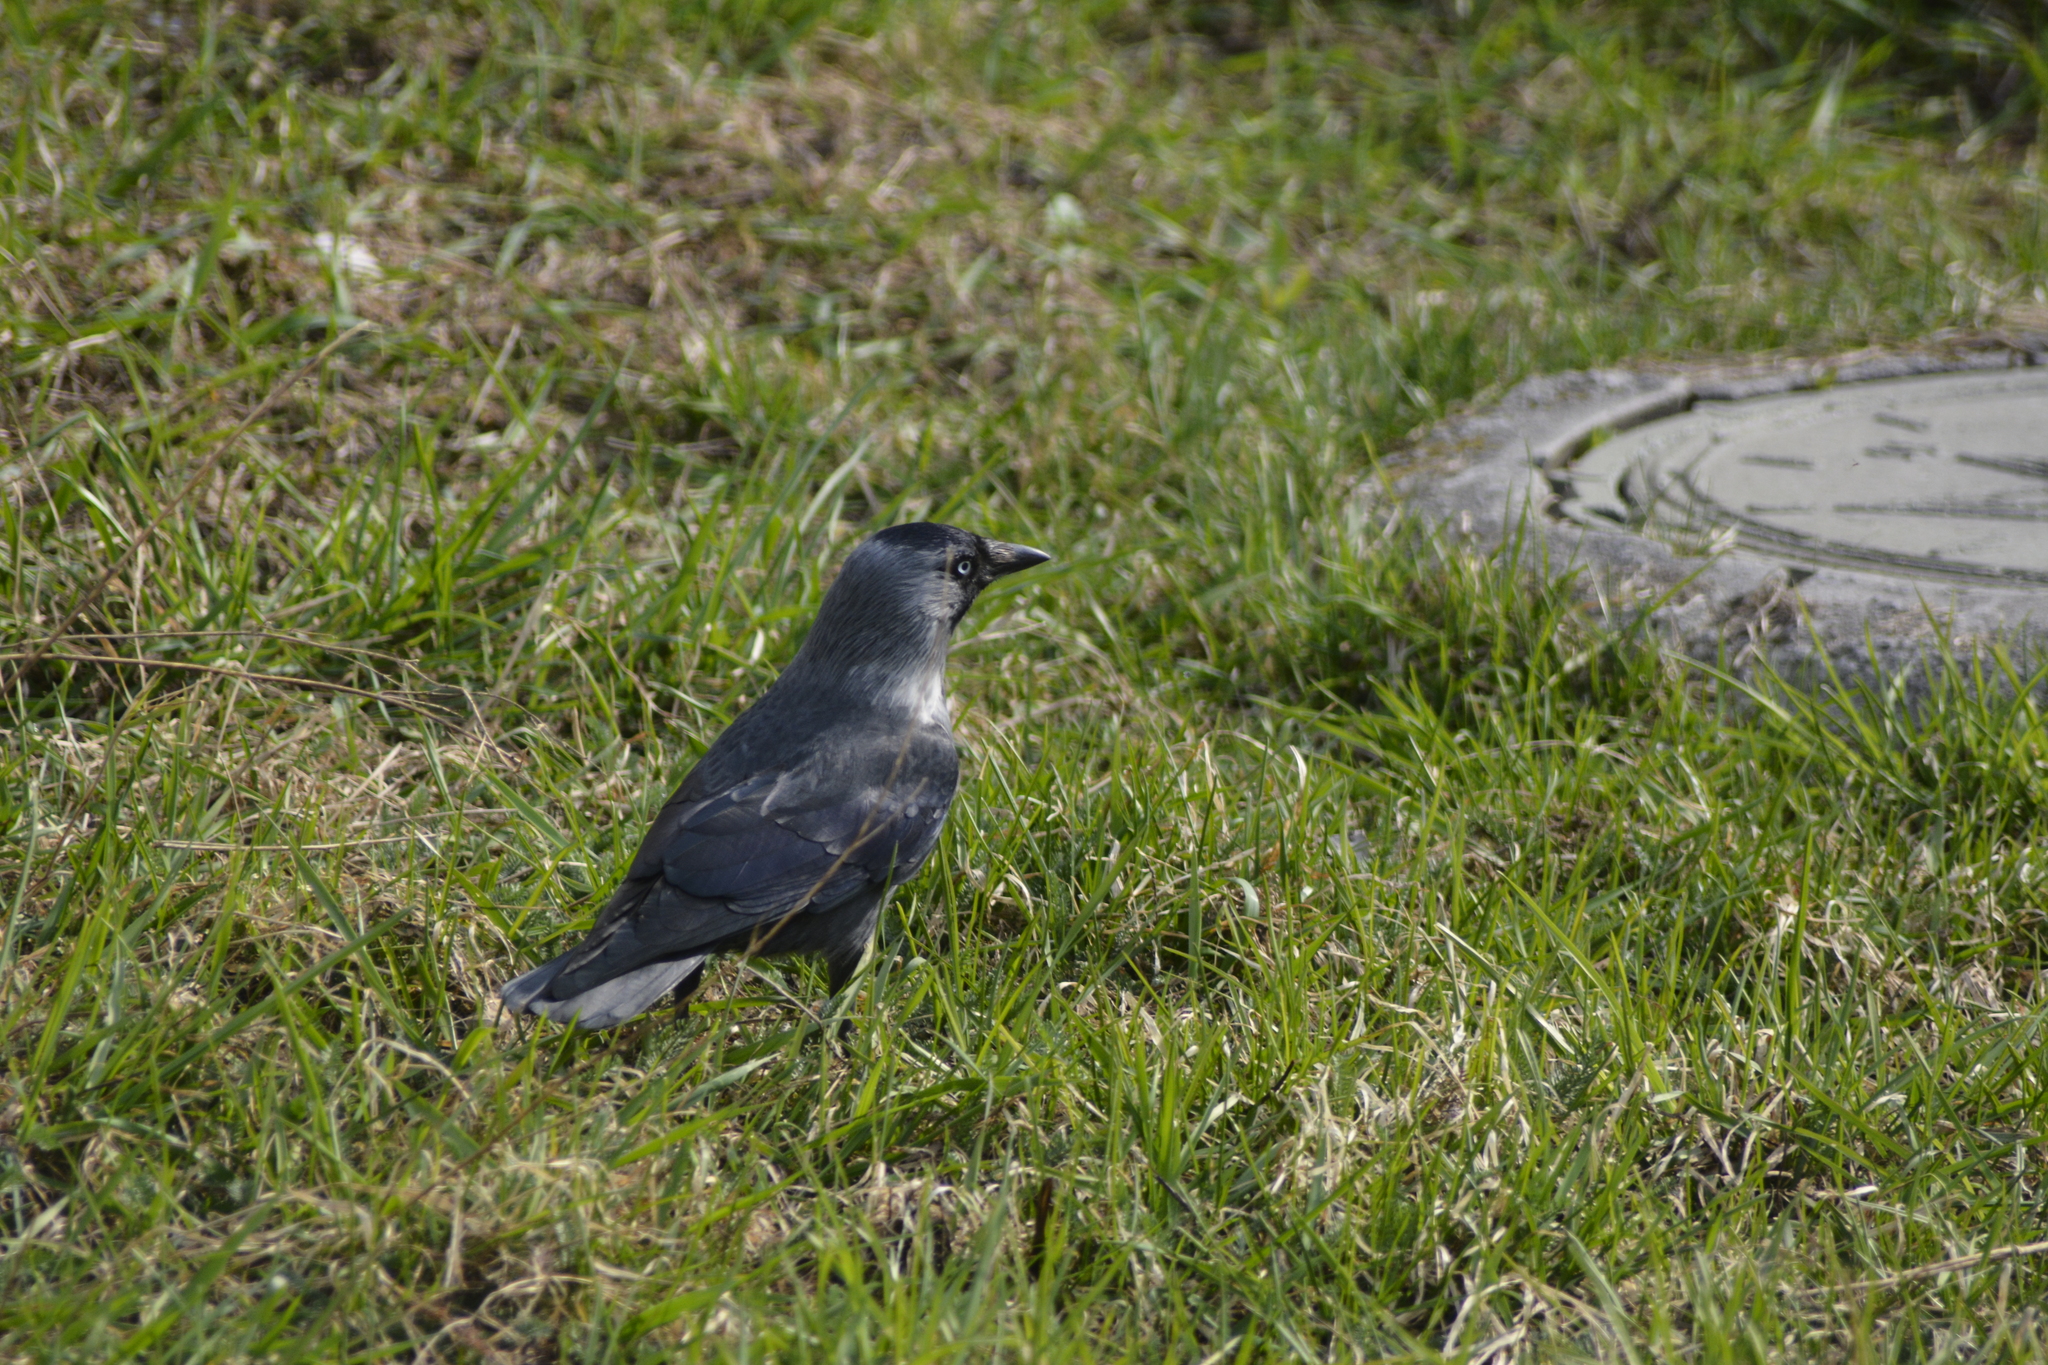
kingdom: Animalia
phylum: Chordata
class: Aves
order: Passeriformes
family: Corvidae
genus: Coloeus
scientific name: Coloeus monedula
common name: Western jackdaw
